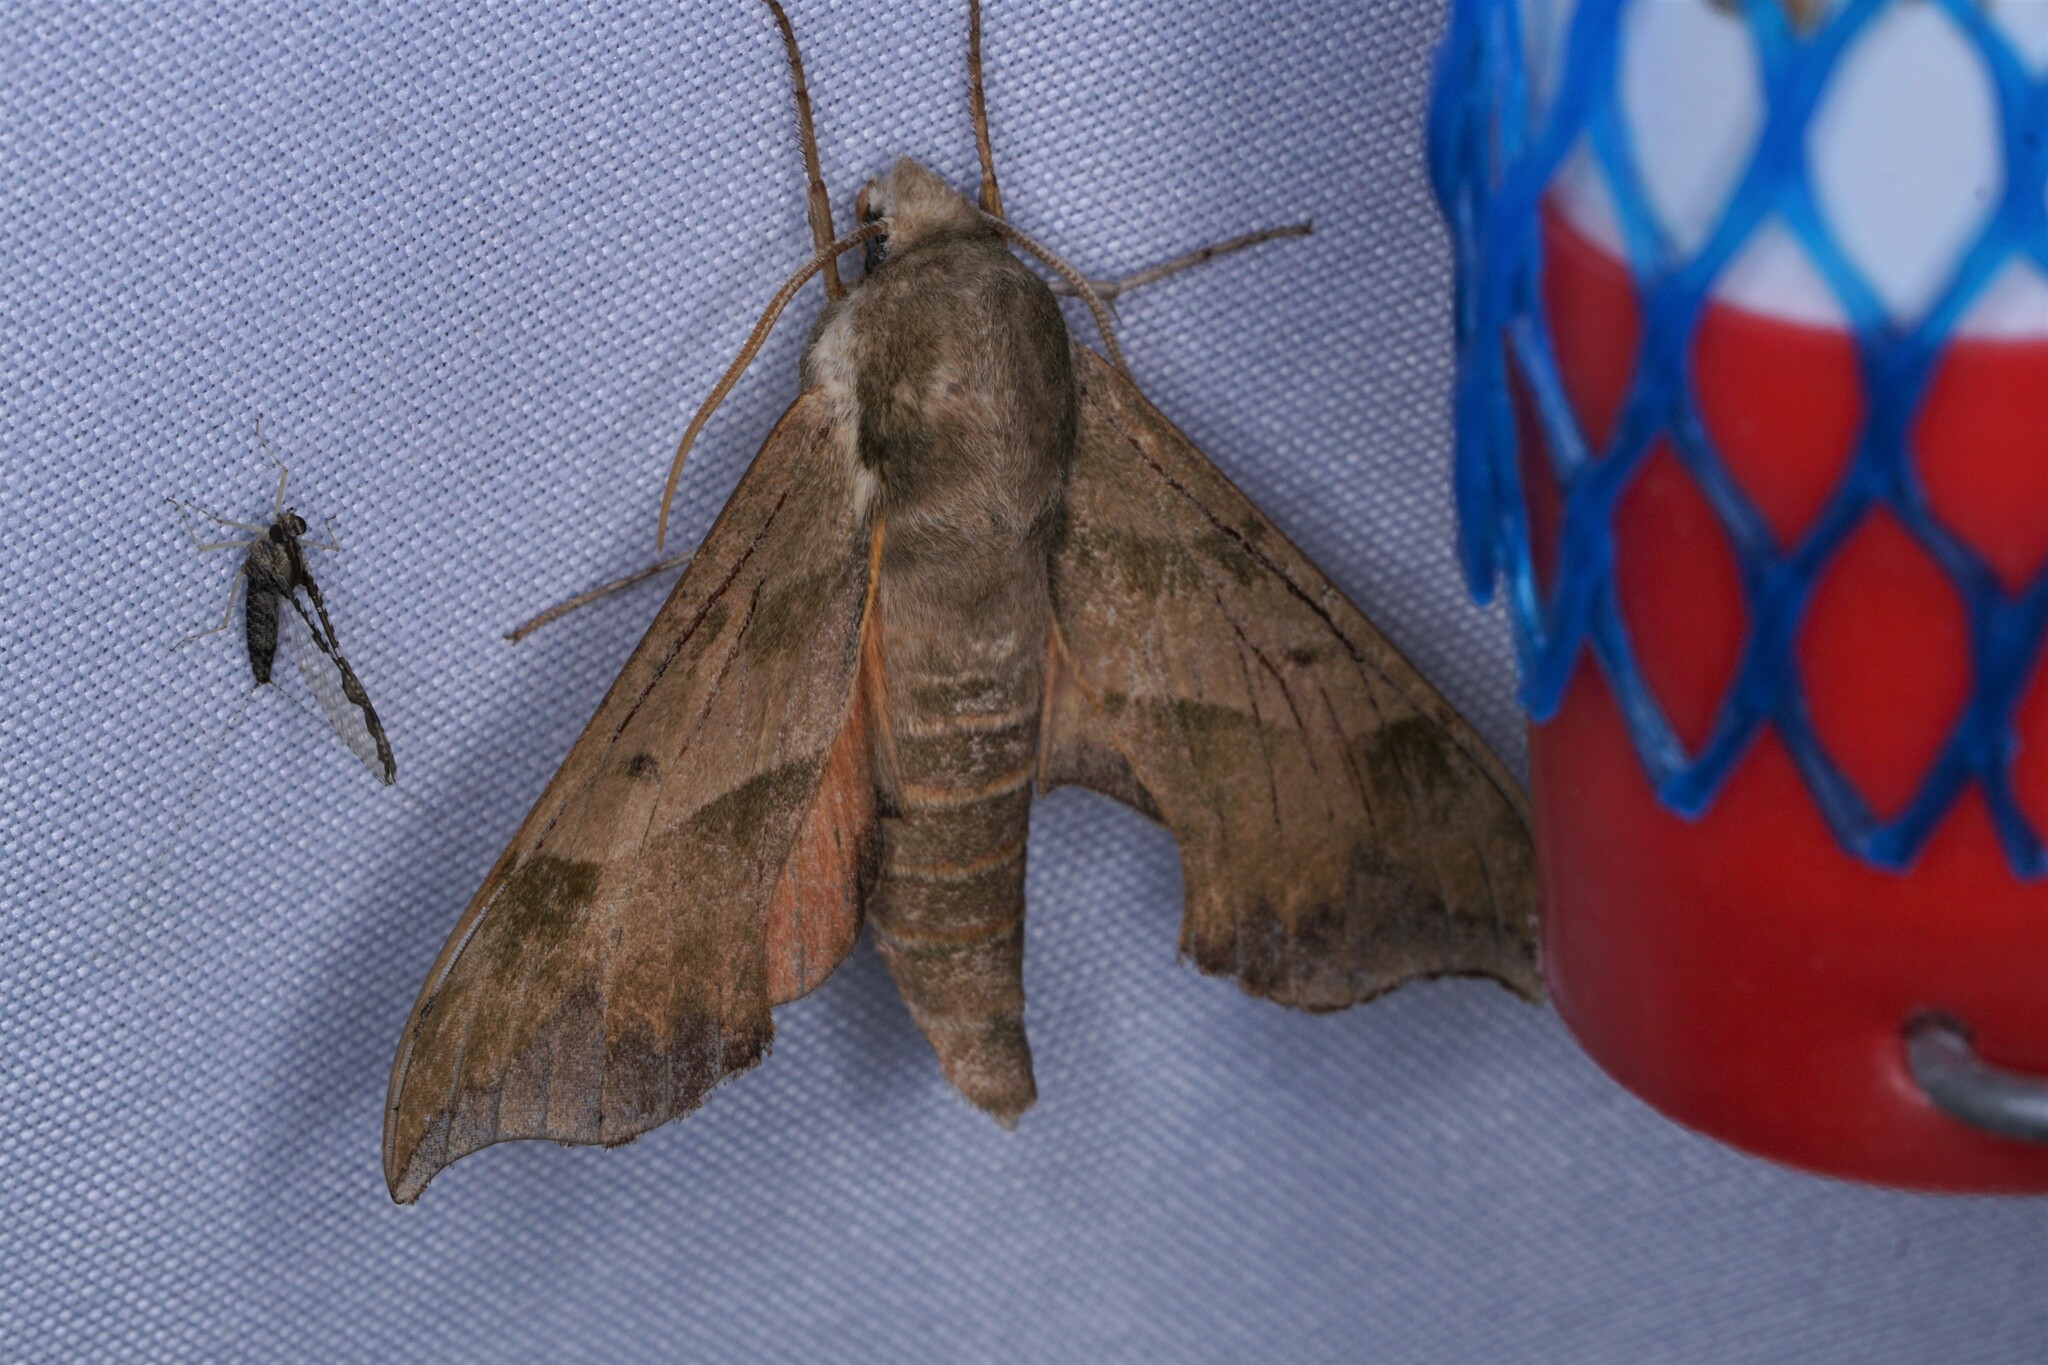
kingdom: Animalia
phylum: Arthropoda
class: Insecta
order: Lepidoptera
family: Sphingidae
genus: Darapsa
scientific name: Darapsa myron
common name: Hog sphinx
